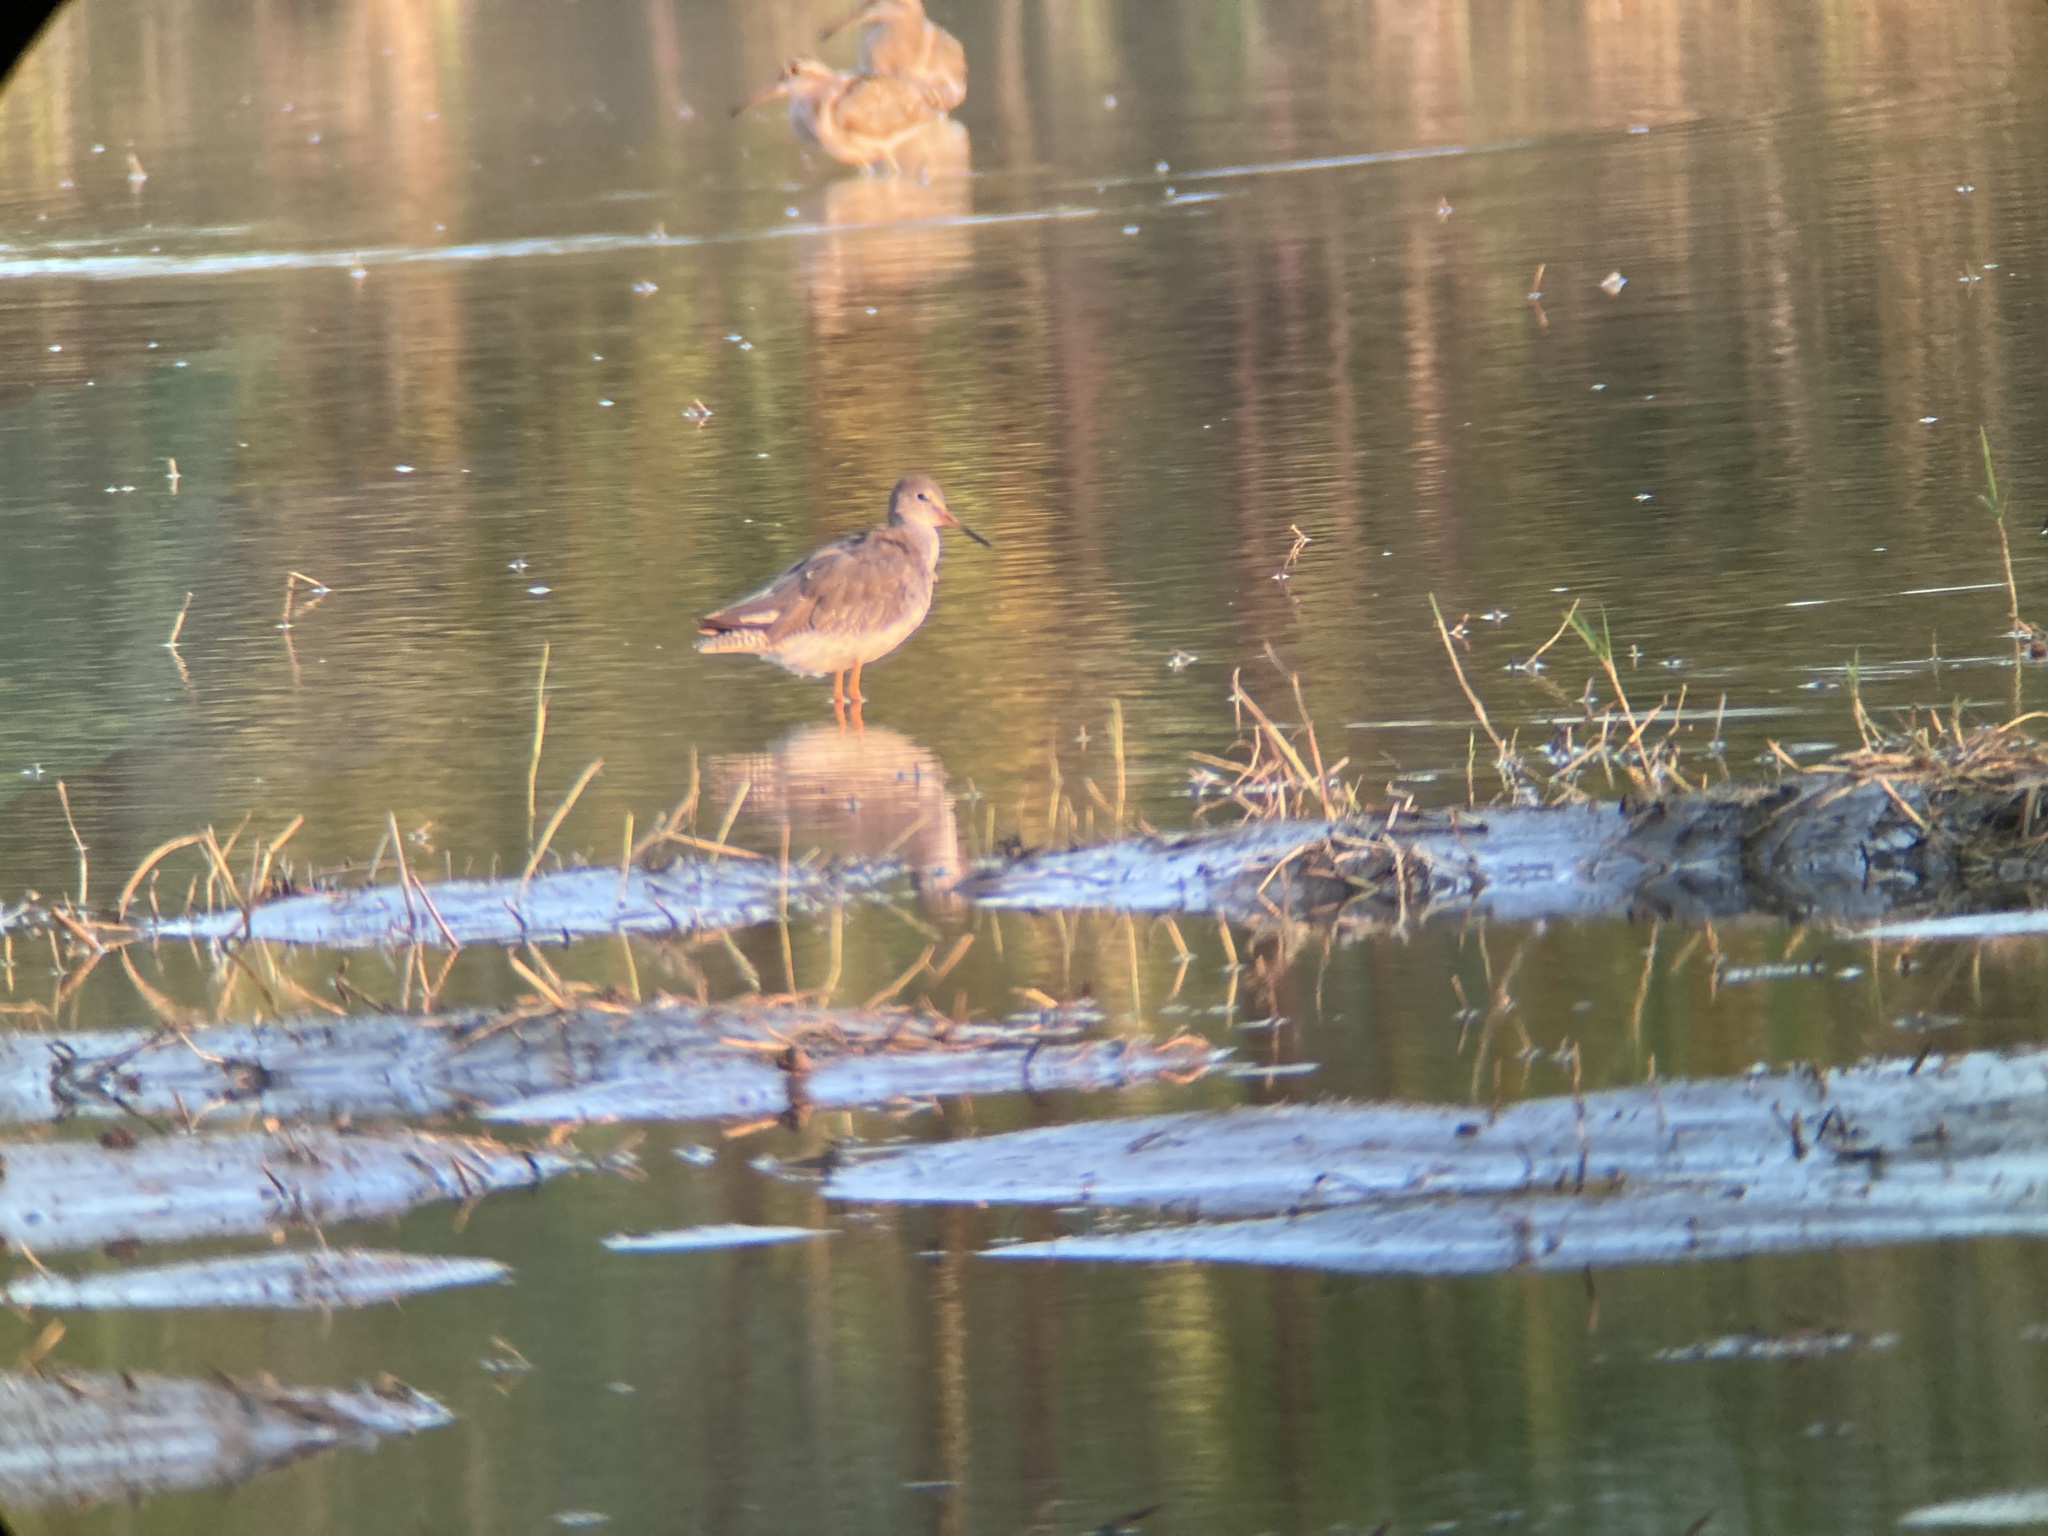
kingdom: Animalia
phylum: Chordata
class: Aves
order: Charadriiformes
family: Scolopacidae
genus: Tringa
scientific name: Tringa totanus
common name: Common redshank
